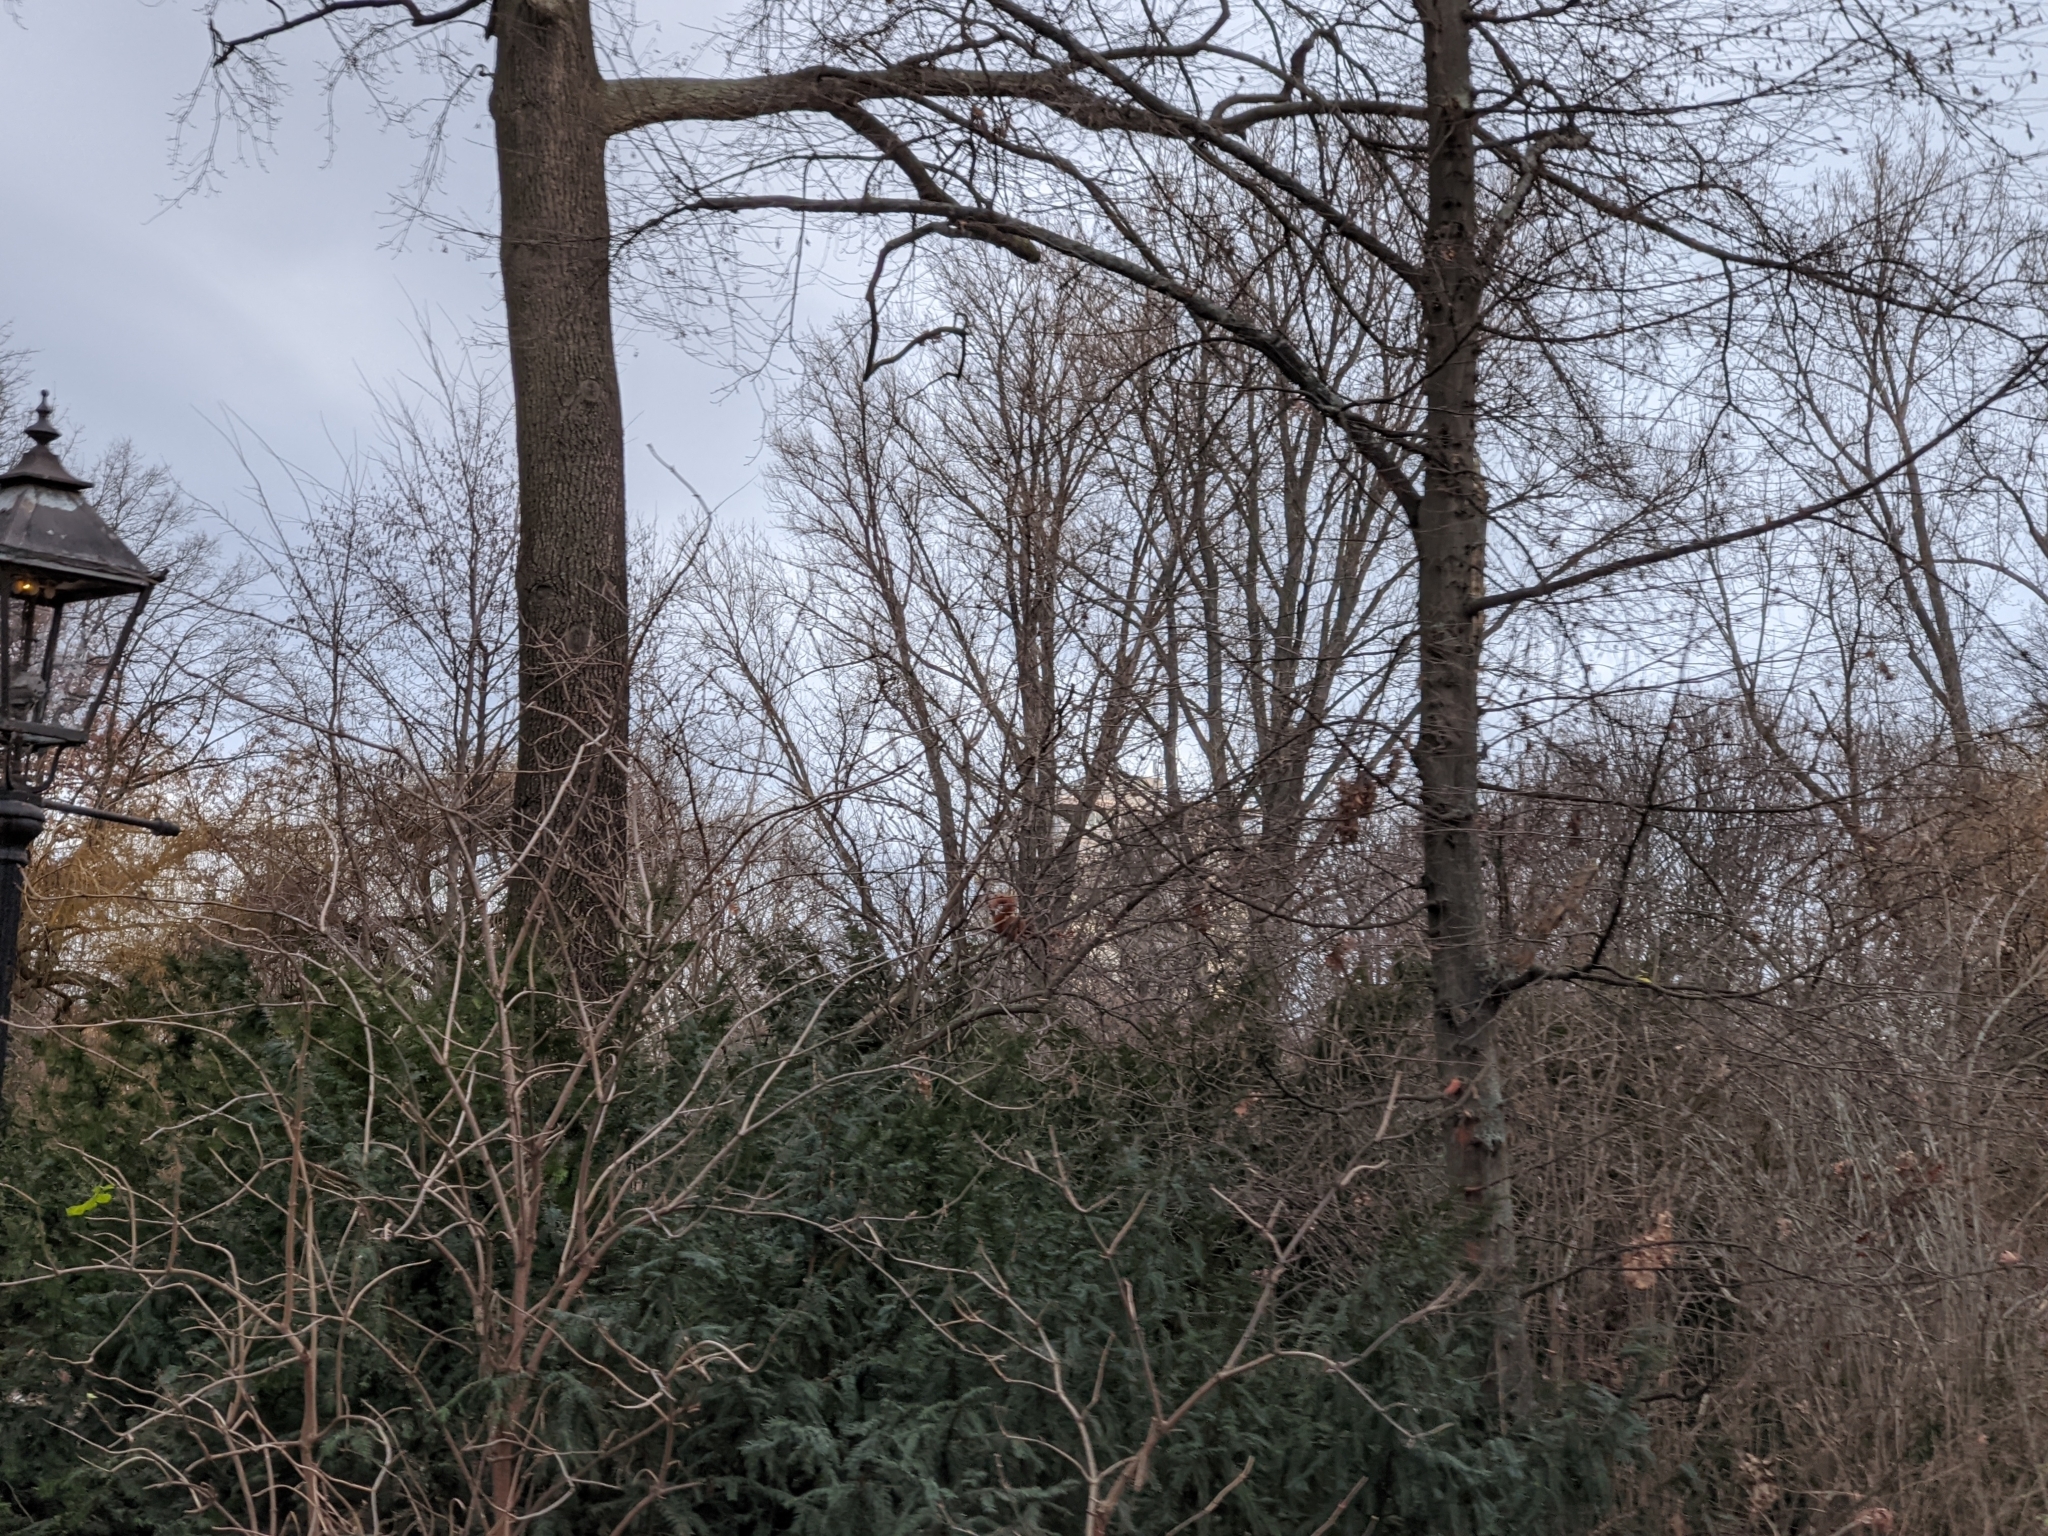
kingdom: Animalia
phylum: Chordata
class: Mammalia
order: Rodentia
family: Sciuridae
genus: Sciurus
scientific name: Sciurus vulgaris
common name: Eurasian red squirrel
